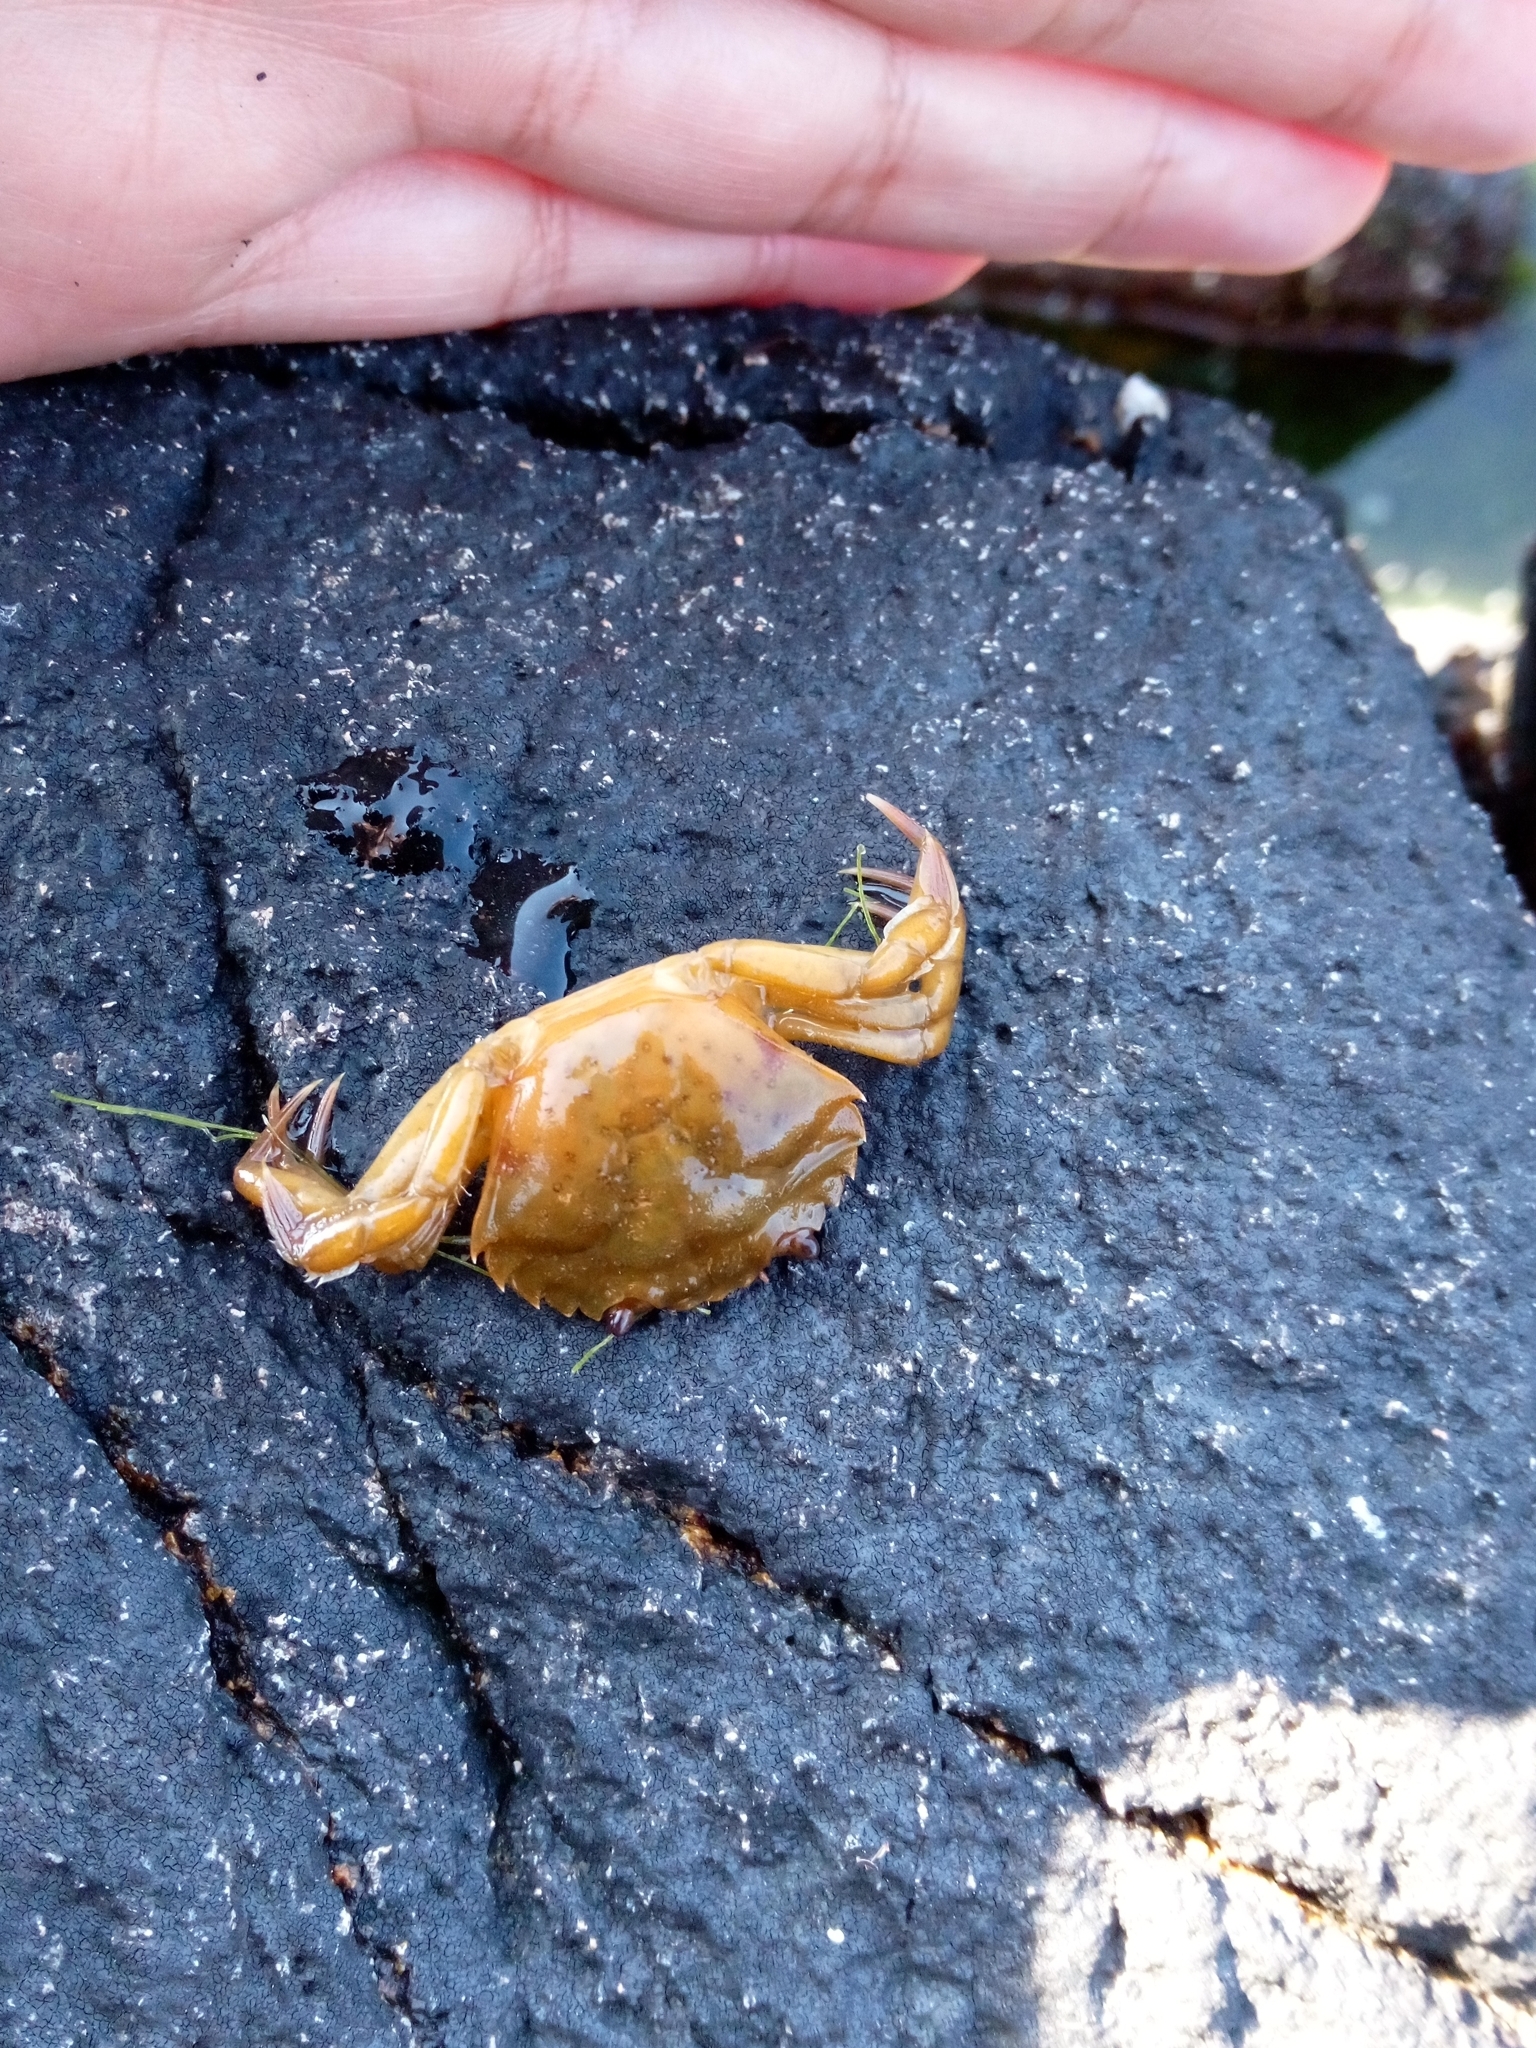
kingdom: Animalia
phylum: Arthropoda
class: Malacostraca
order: Decapoda
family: Carcinidae
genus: Carcinus
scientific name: Carcinus maenas
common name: European green crab
